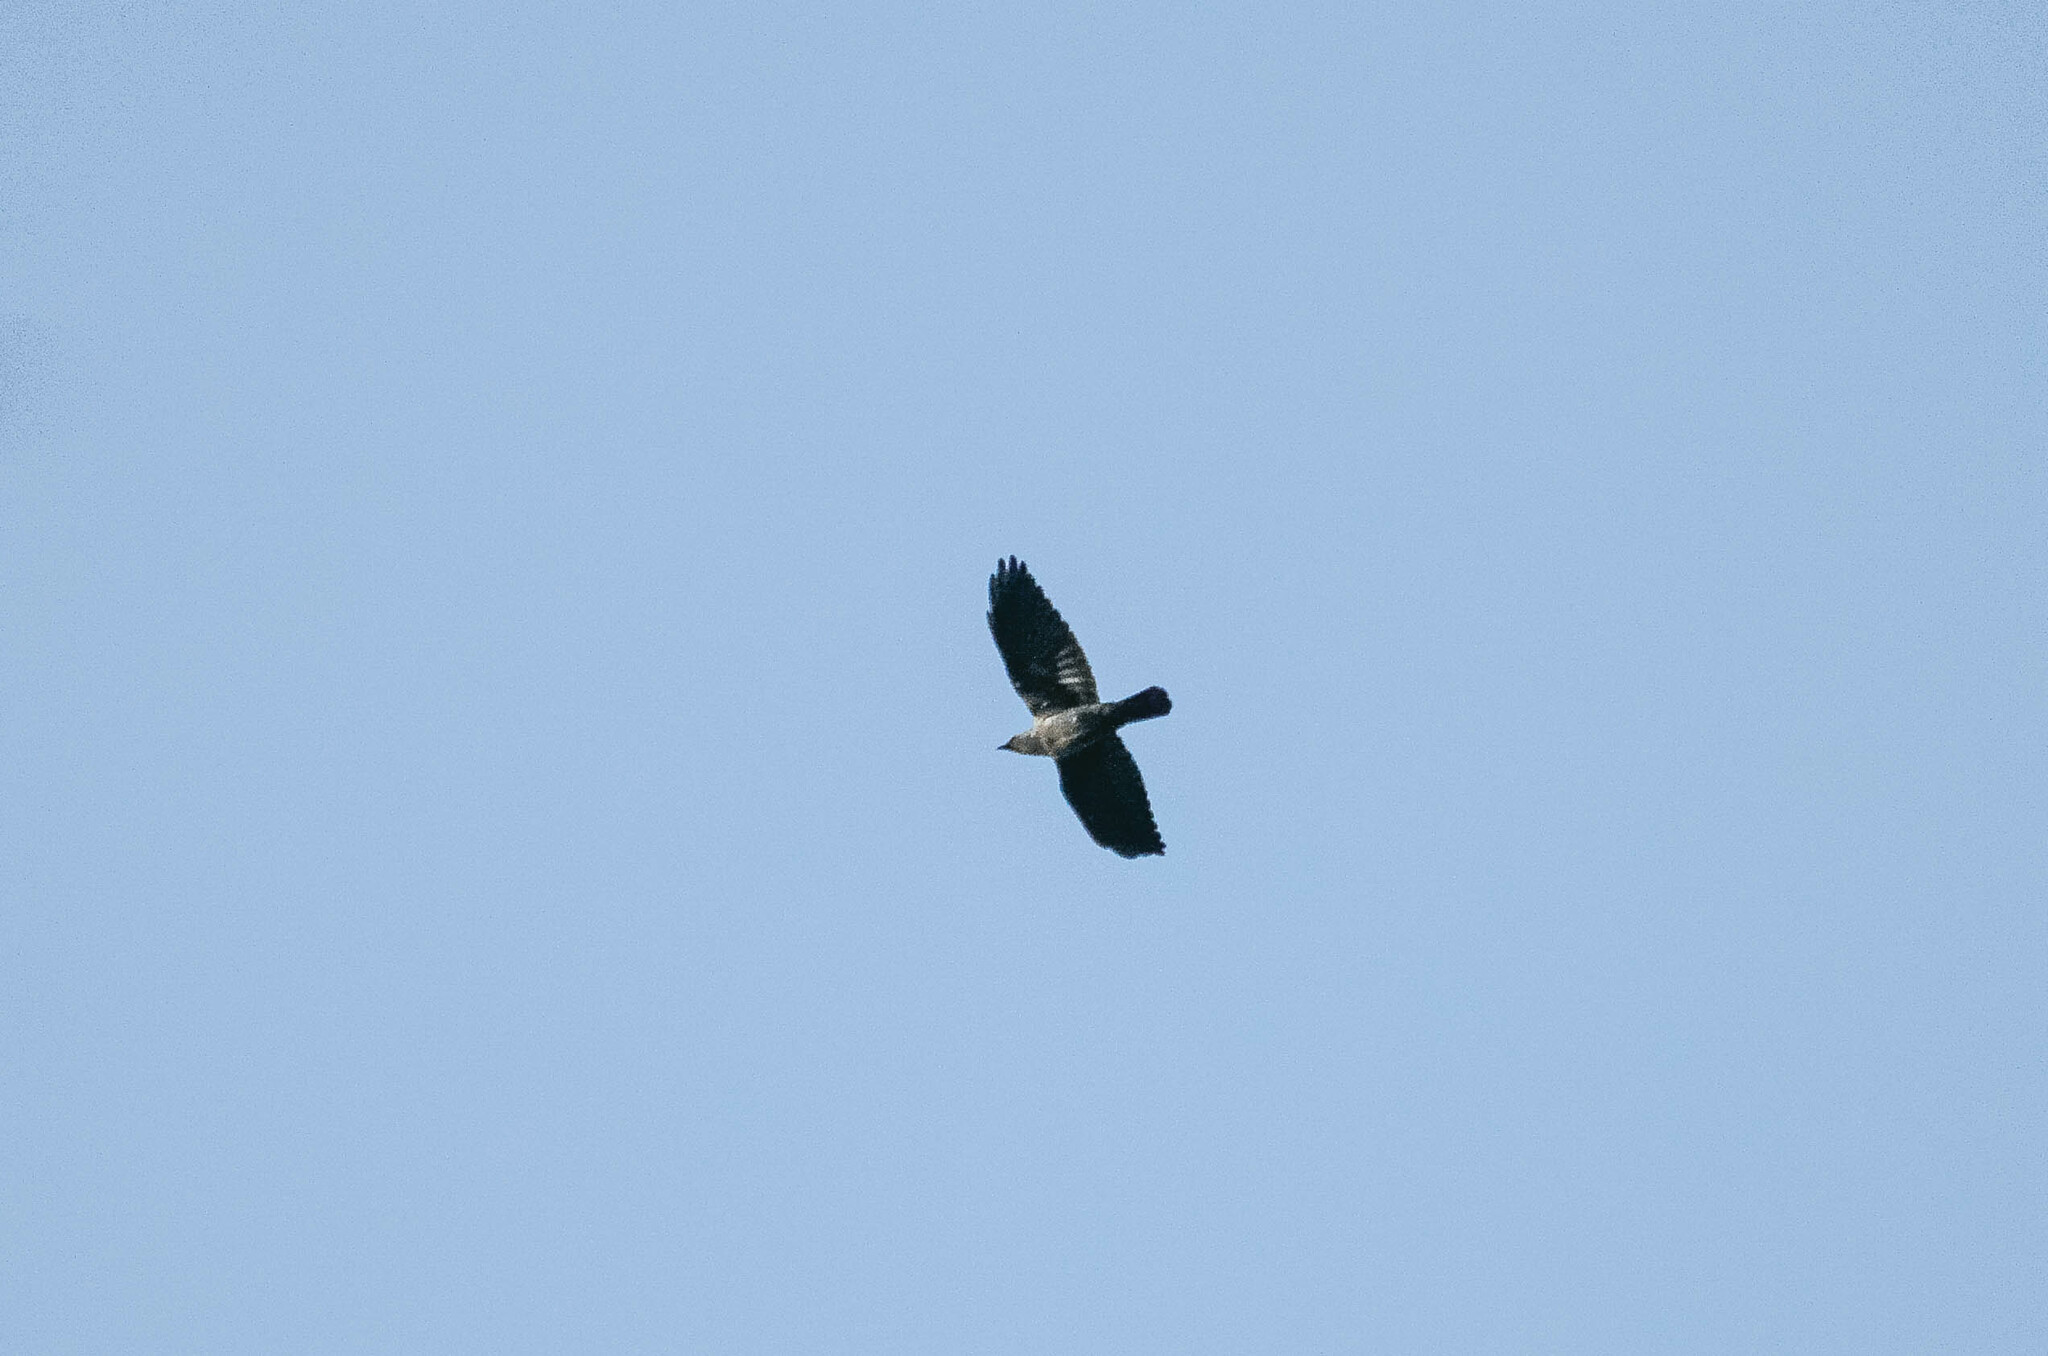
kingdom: Animalia
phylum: Chordata
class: Aves
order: Passeriformes
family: Corvidae
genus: Coloeus
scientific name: Coloeus monedula
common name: Western jackdaw
